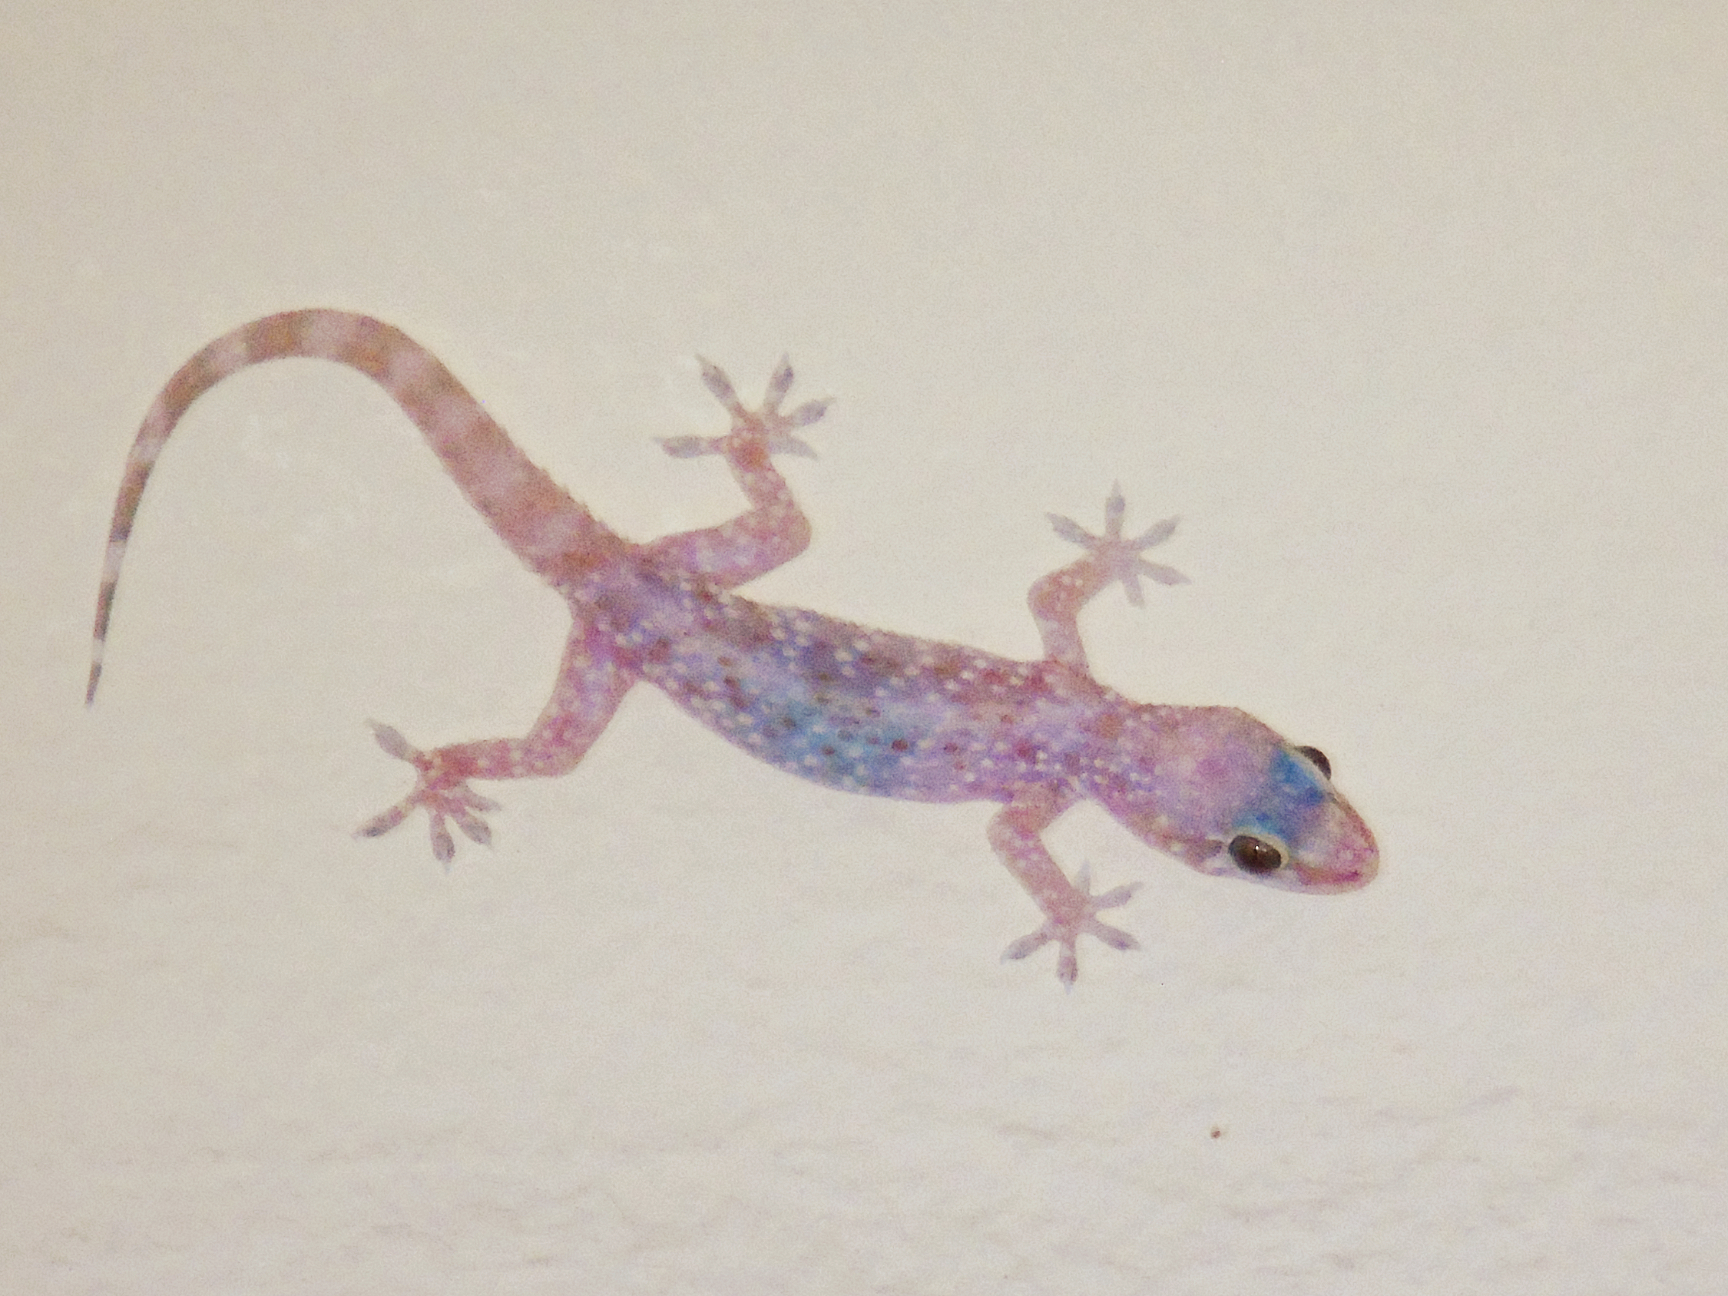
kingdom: Animalia
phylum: Chordata
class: Squamata
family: Gekkonidae
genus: Hemidactylus
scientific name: Hemidactylus turcicus
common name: Turkish gecko
